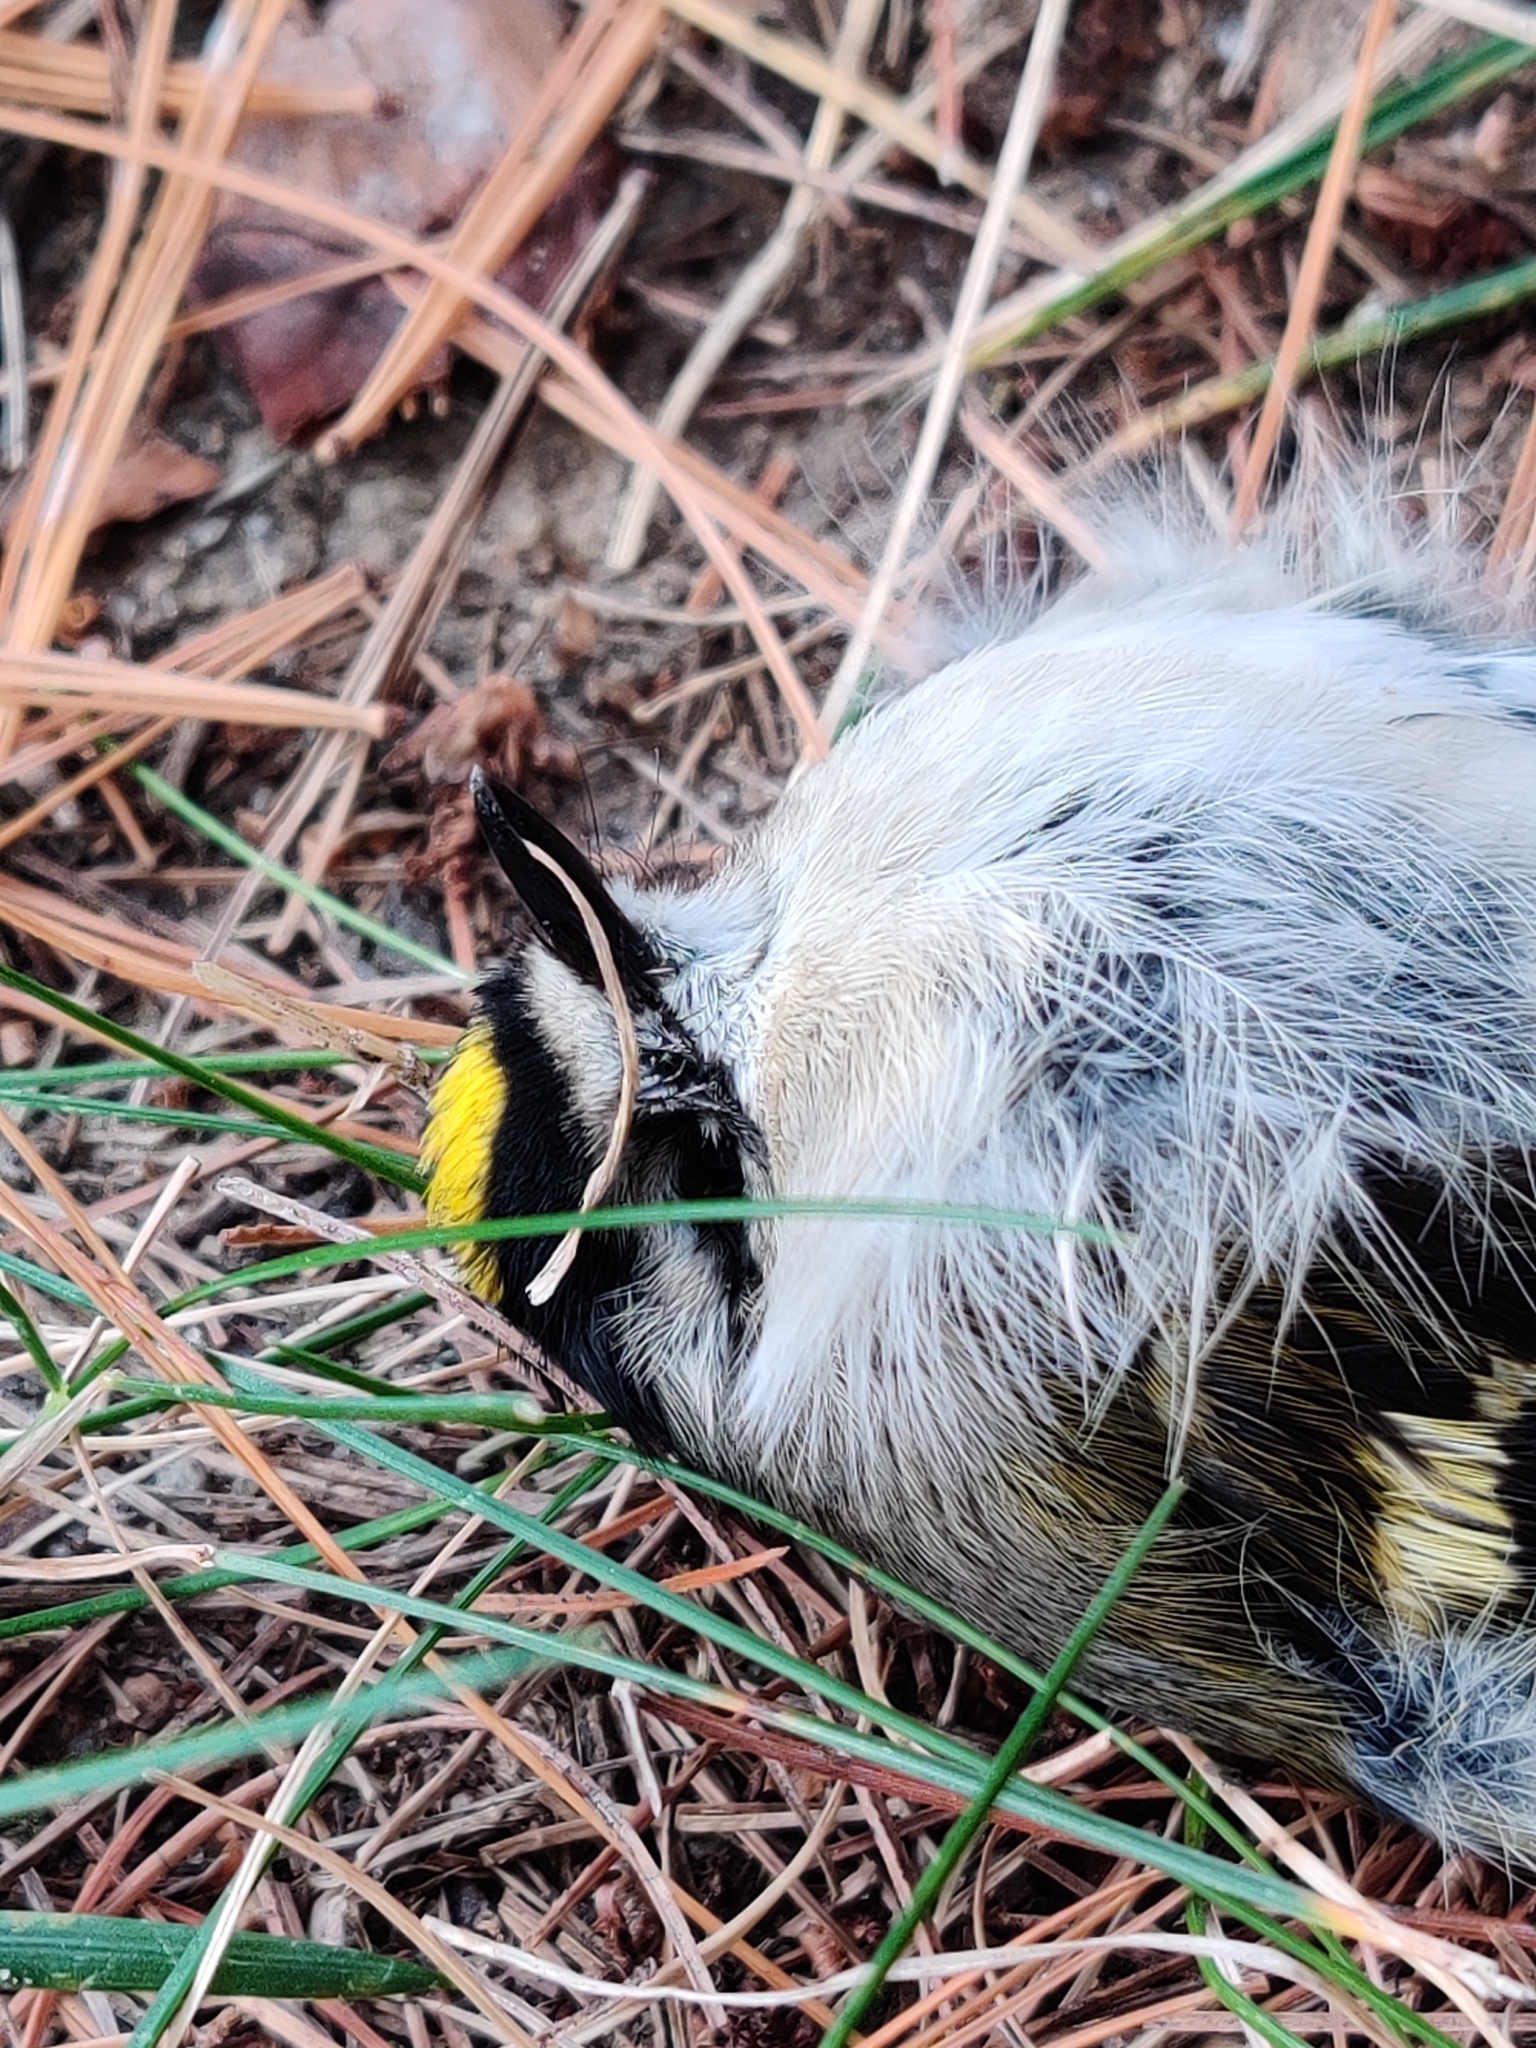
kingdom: Animalia
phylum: Chordata
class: Aves
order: Passeriformes
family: Regulidae
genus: Regulus
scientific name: Regulus satrapa
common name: Golden-crowned kinglet
